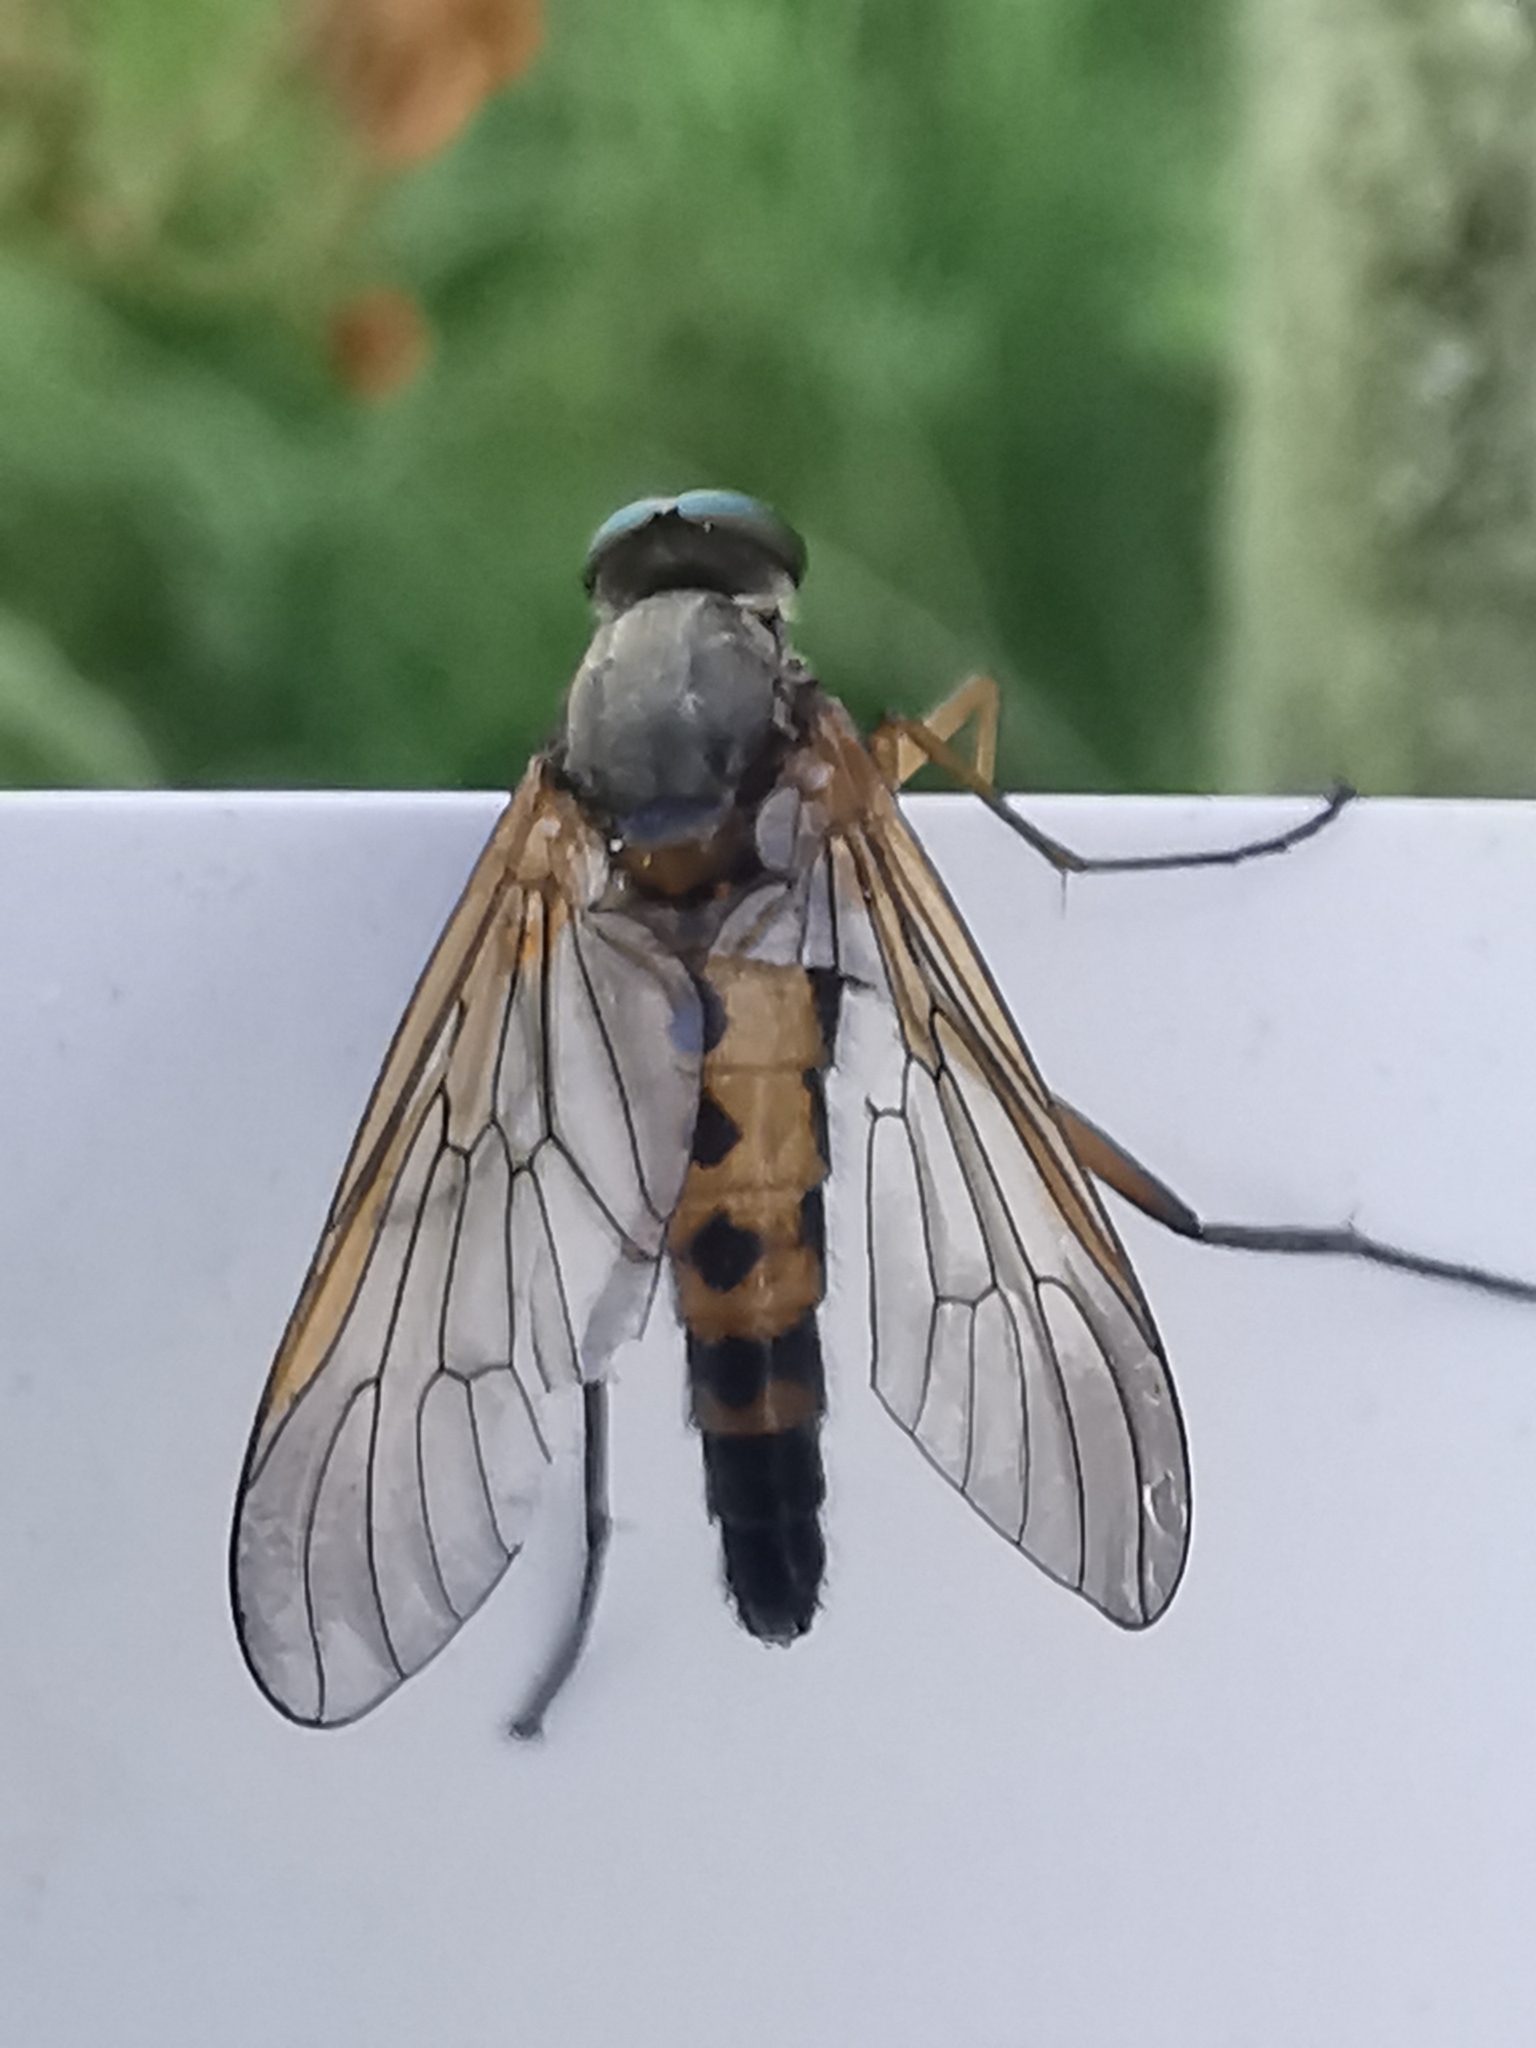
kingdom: Animalia
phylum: Arthropoda
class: Insecta
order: Diptera
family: Rhagionidae
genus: Rhagio
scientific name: Rhagio tringaria
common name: Marsh snipefly
